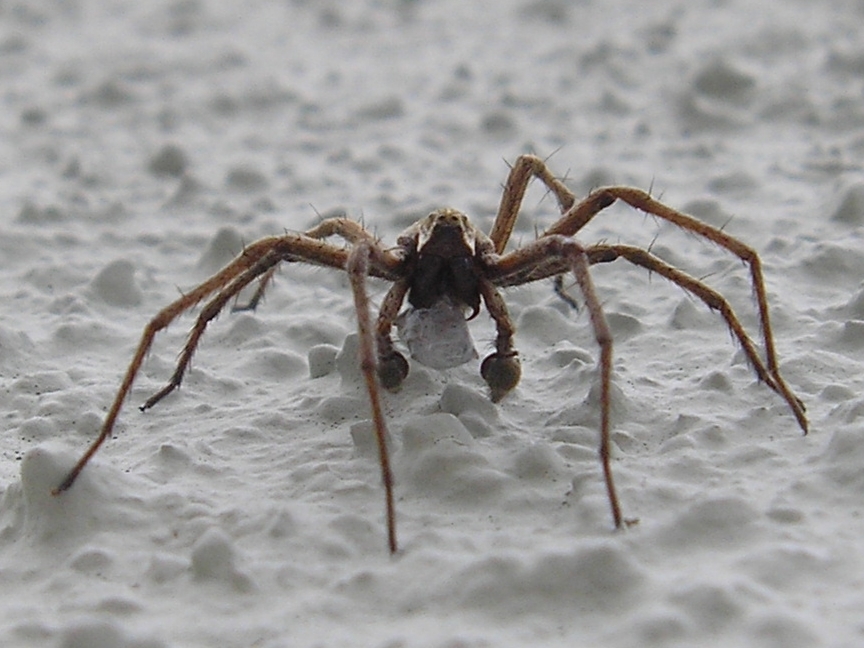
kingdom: Animalia
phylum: Arthropoda
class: Arachnida
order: Araneae
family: Pisauridae
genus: Pisaura
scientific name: Pisaura mirabilis
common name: Tent spider
